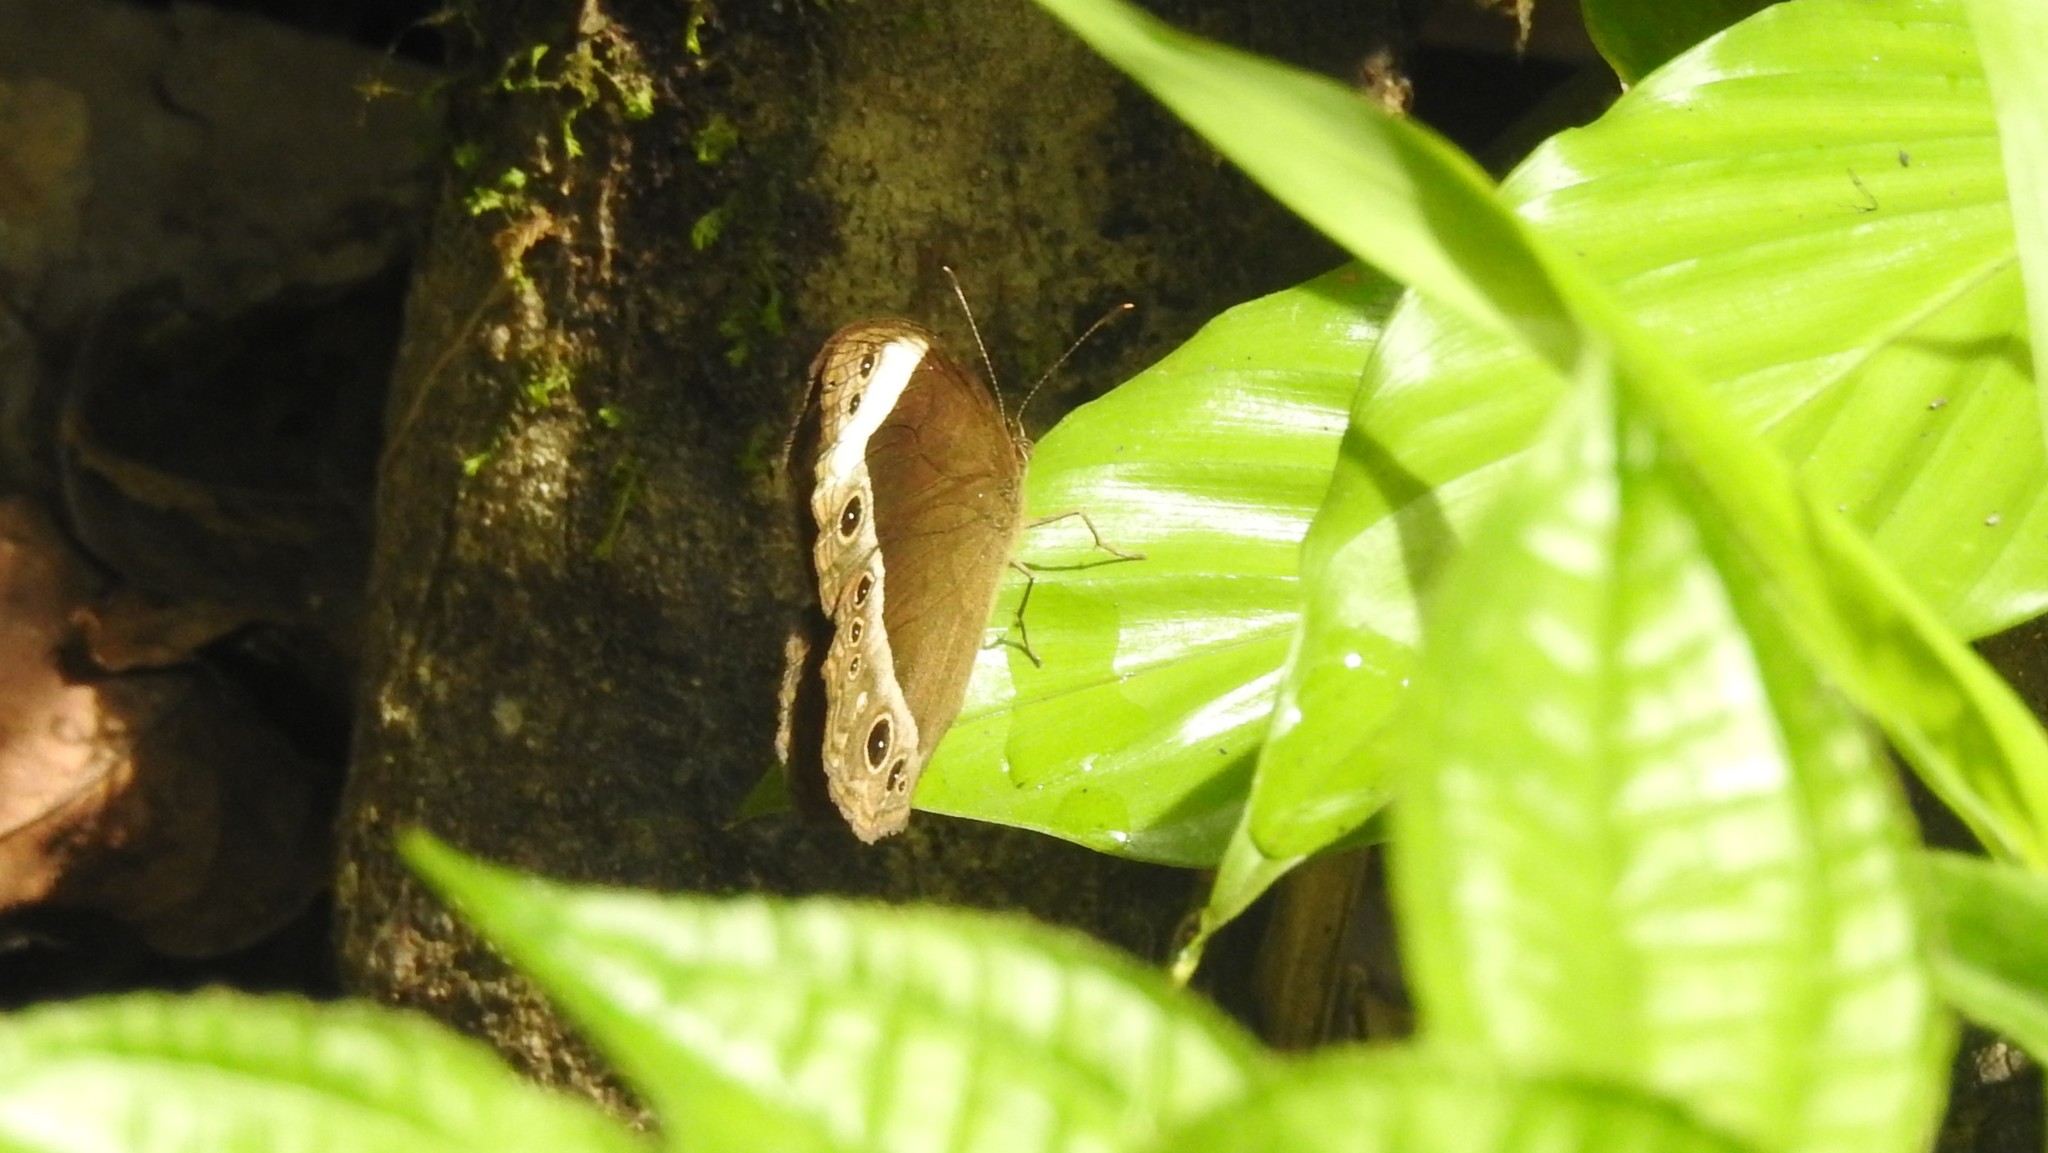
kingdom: Animalia
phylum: Arthropoda
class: Insecta
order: Lepidoptera
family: Nymphalidae
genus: Mycalesis
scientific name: Mycalesis anaxias
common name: White-bar bushbrown
